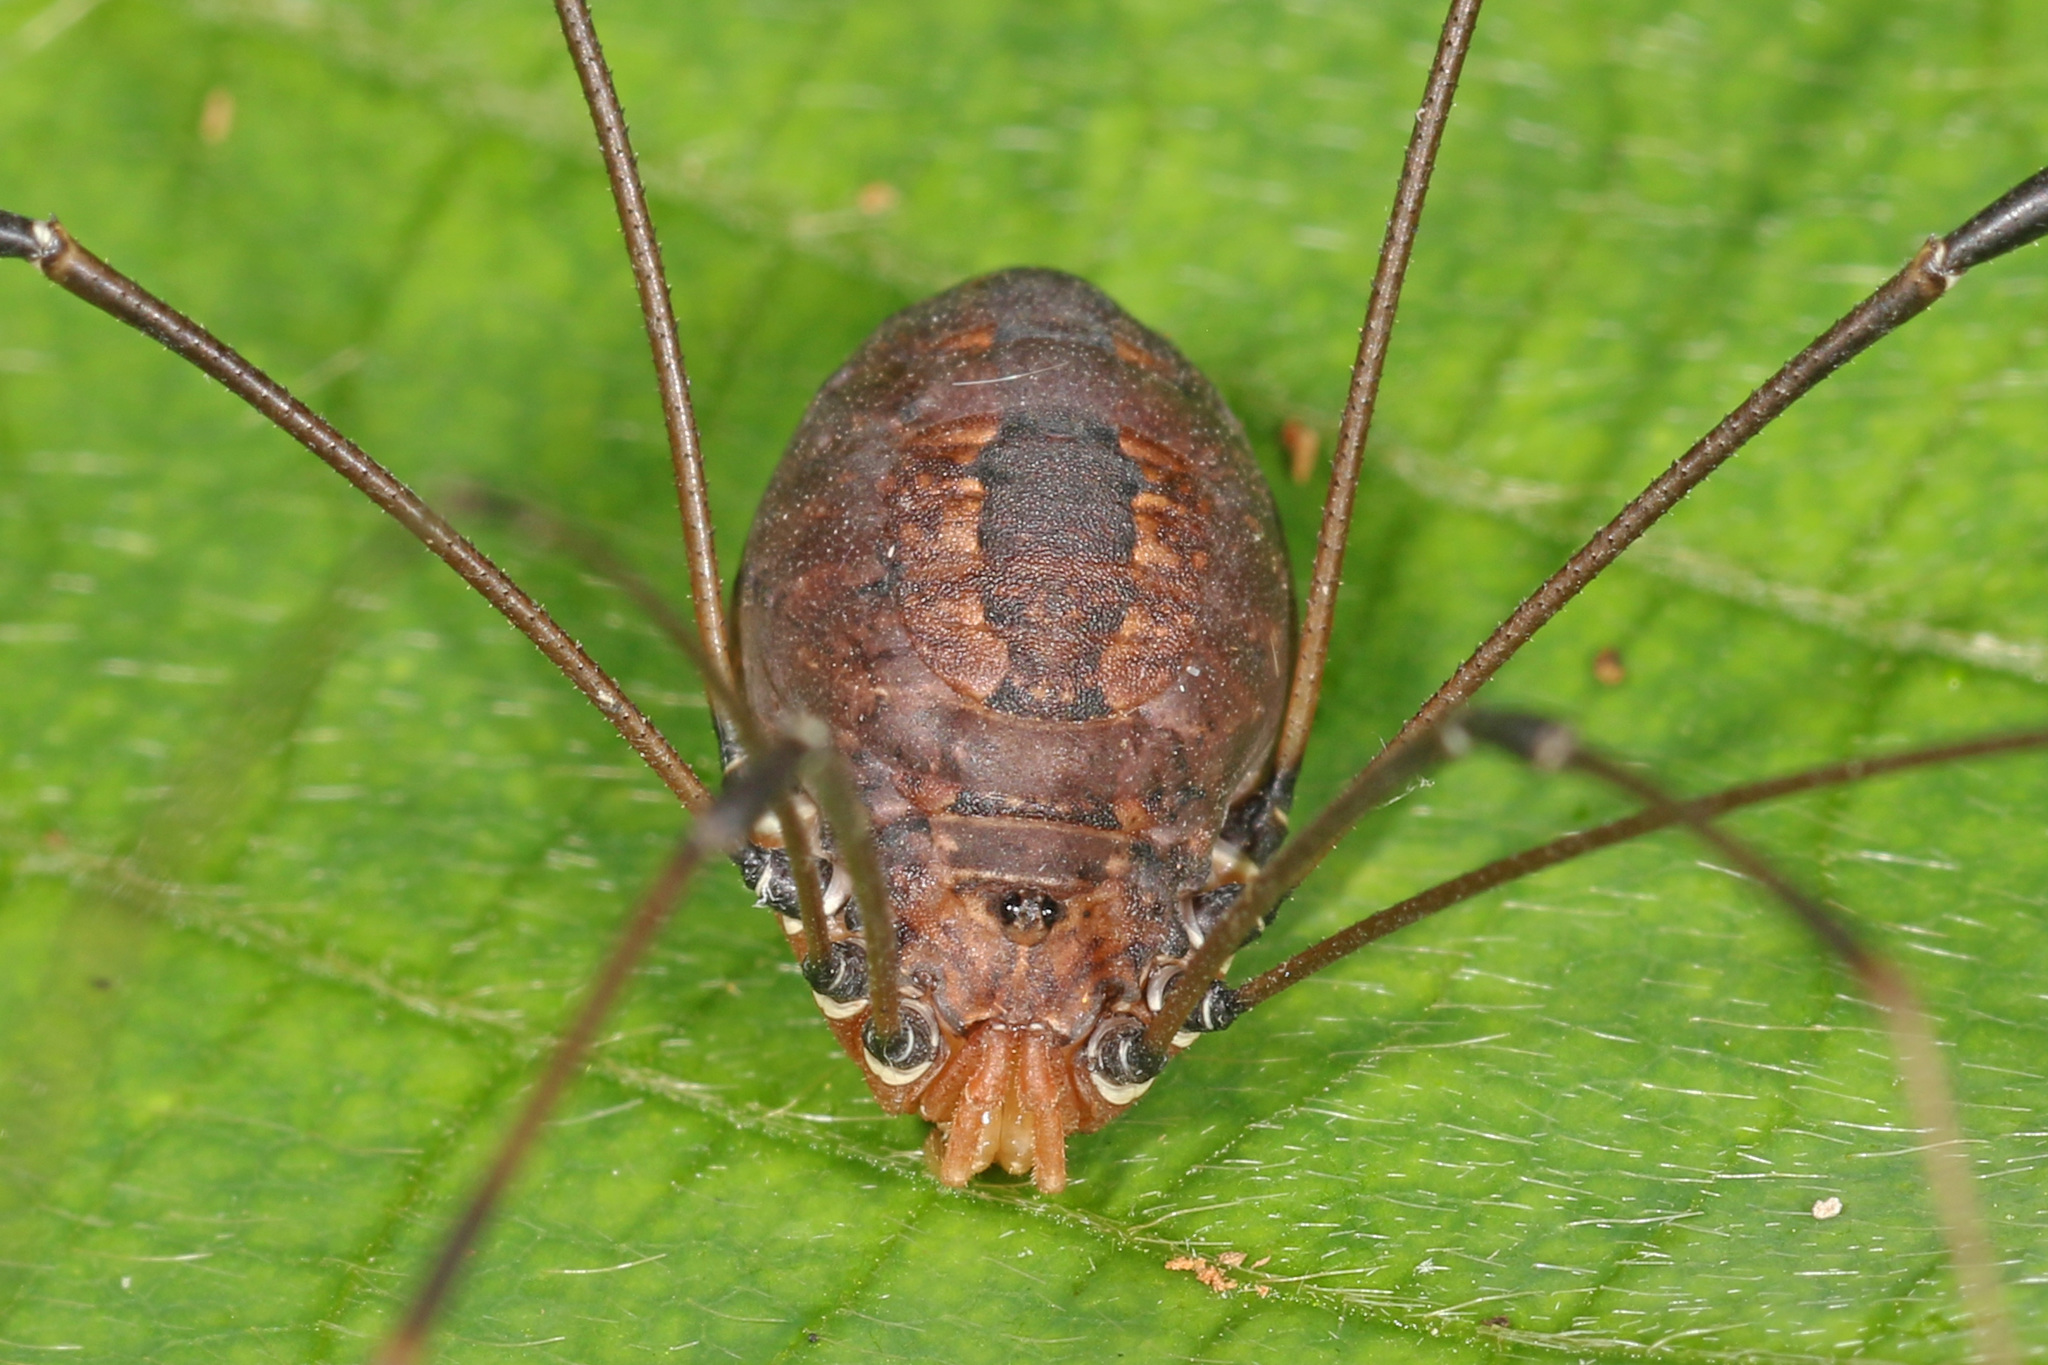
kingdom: Animalia
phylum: Arthropoda
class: Arachnida
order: Opiliones
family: Sclerosomatidae
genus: Leiobunum
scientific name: Leiobunum vittatum
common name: Eastern harvestman
